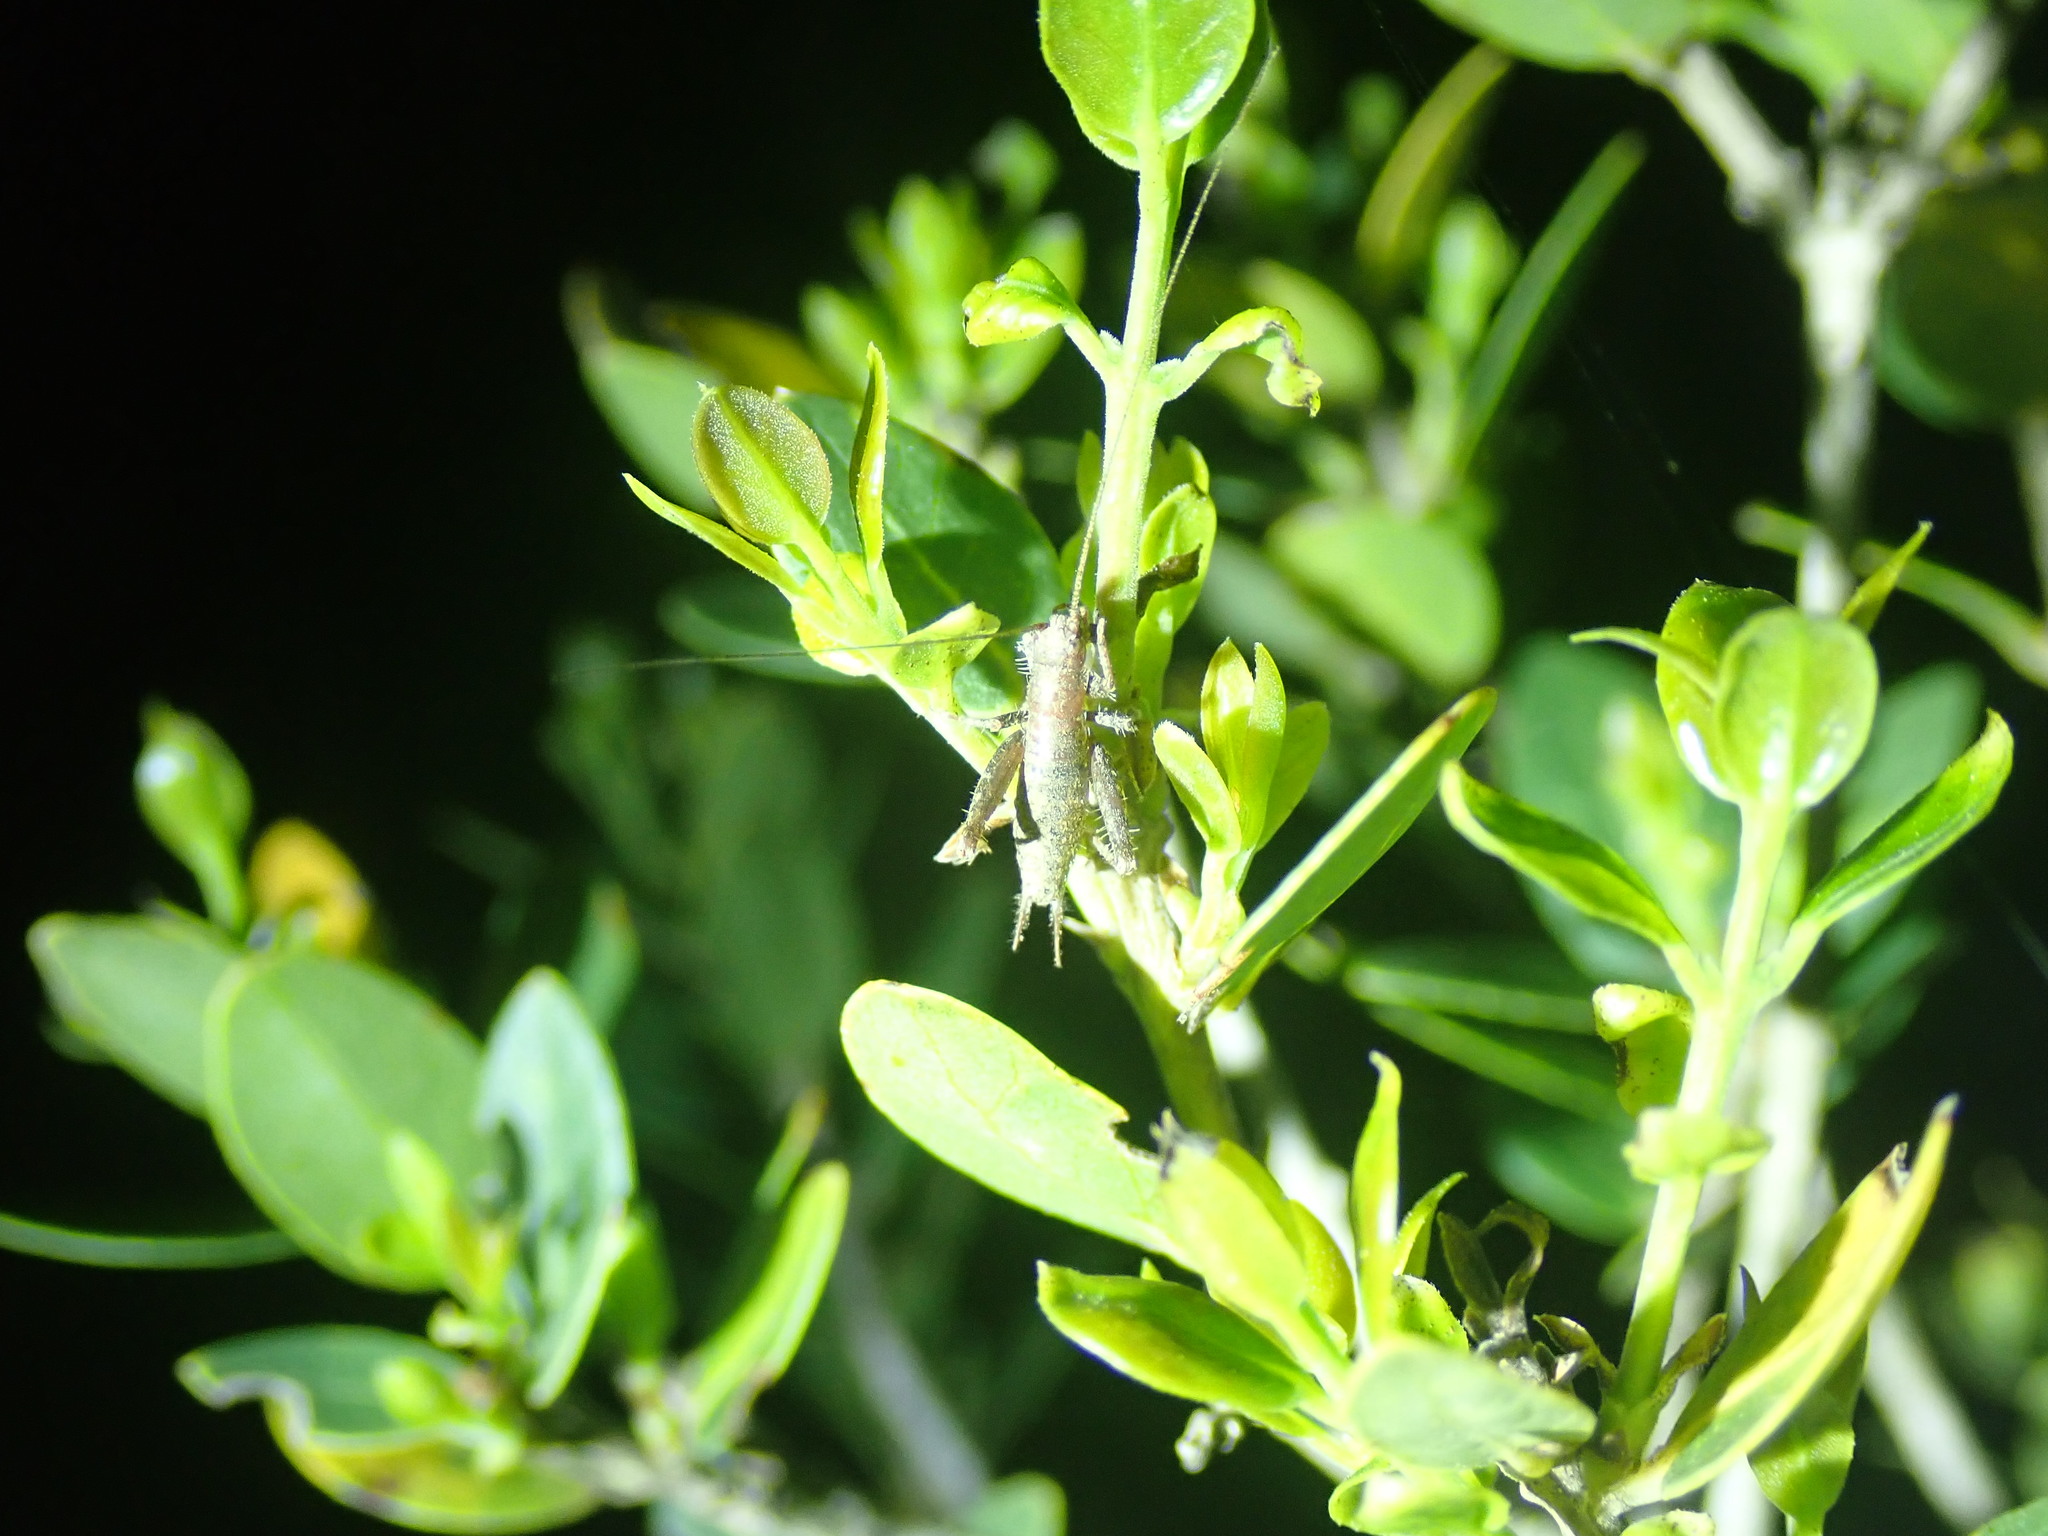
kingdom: Animalia
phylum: Arthropoda
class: Insecta
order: Orthoptera
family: Mogoplistidae
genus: Arachnocephalus
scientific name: Arachnocephalus vestitus
